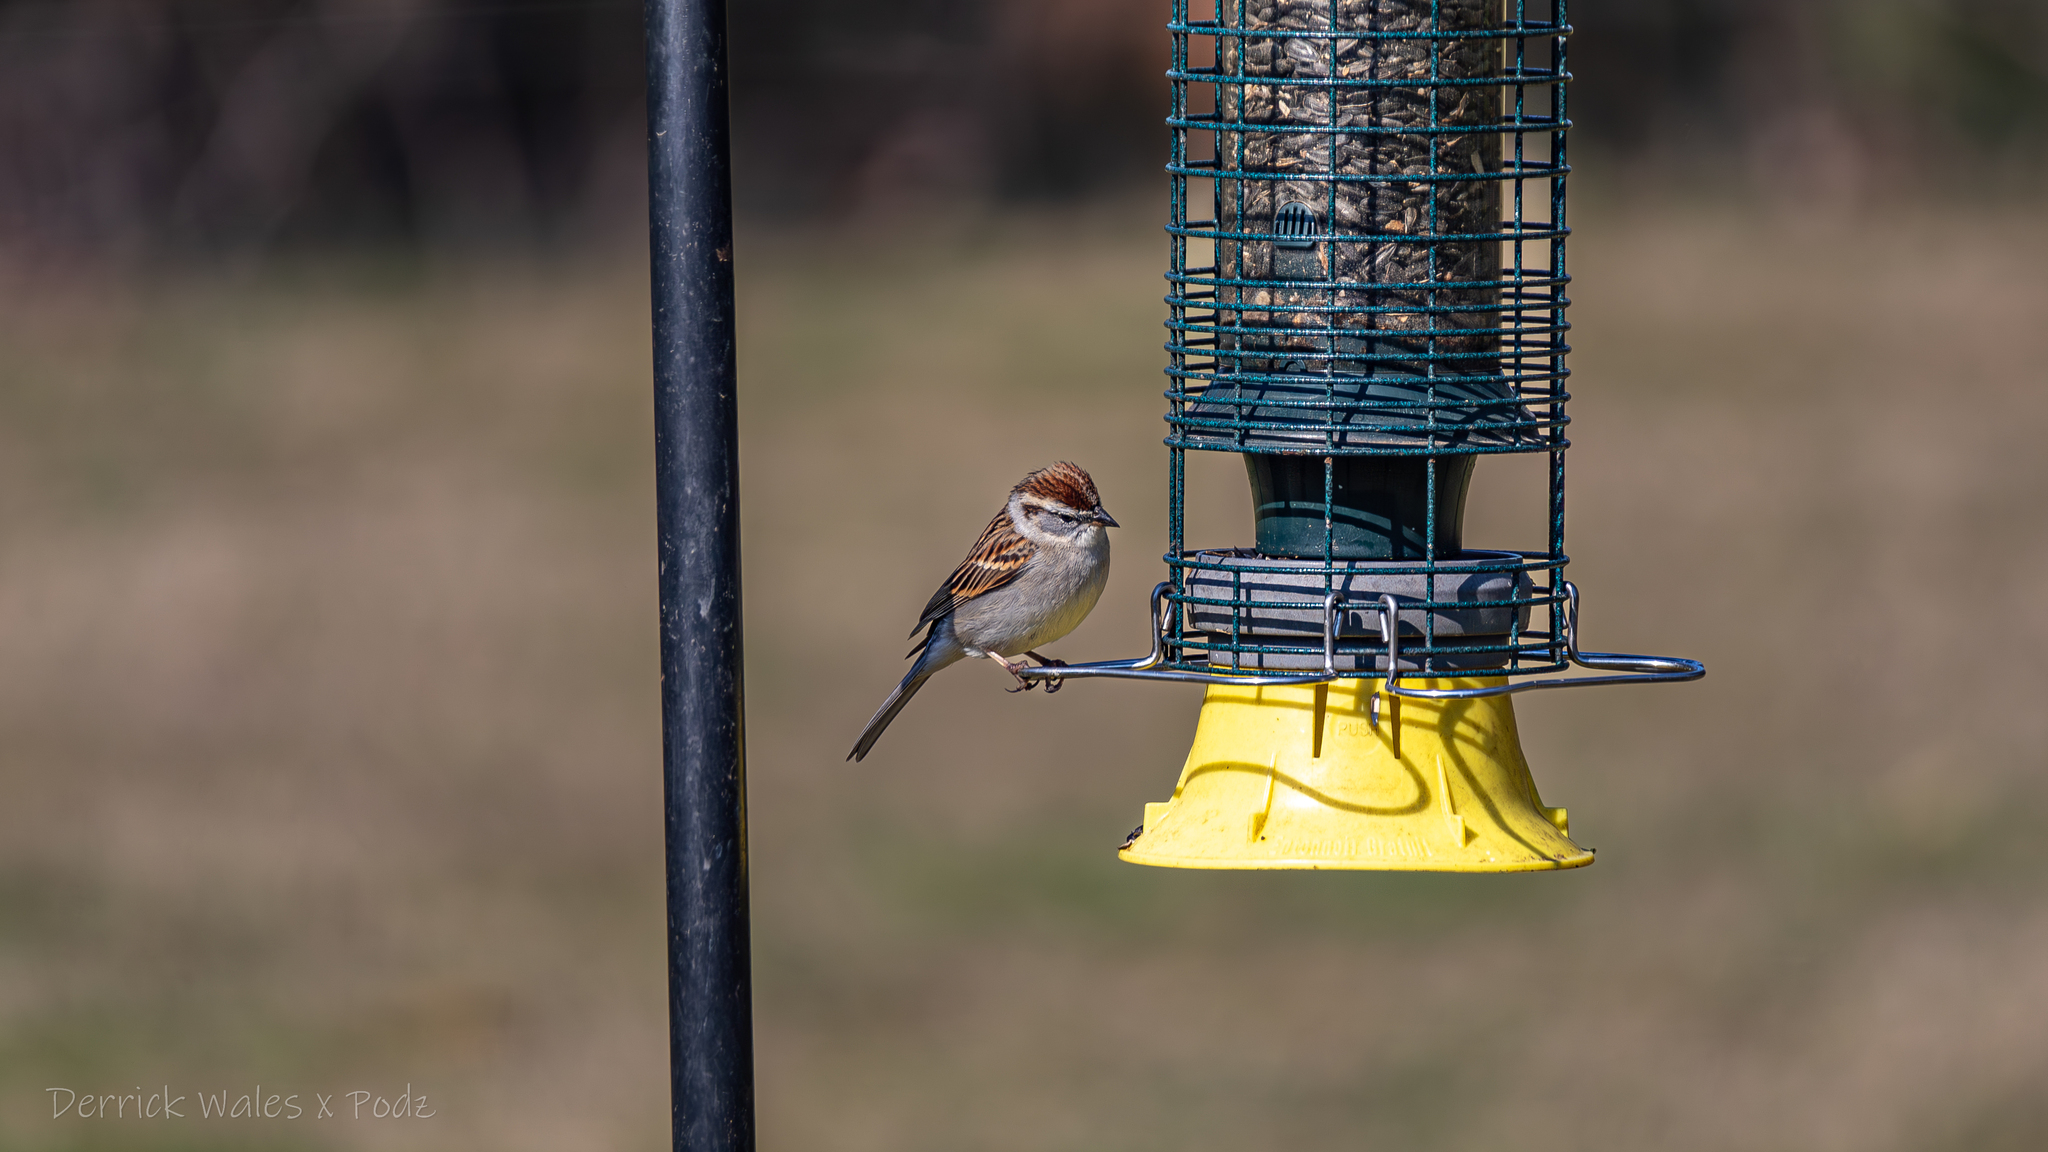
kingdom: Animalia
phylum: Chordata
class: Aves
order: Passeriformes
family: Passerellidae
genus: Spizella
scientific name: Spizella passerina
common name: Chipping sparrow
